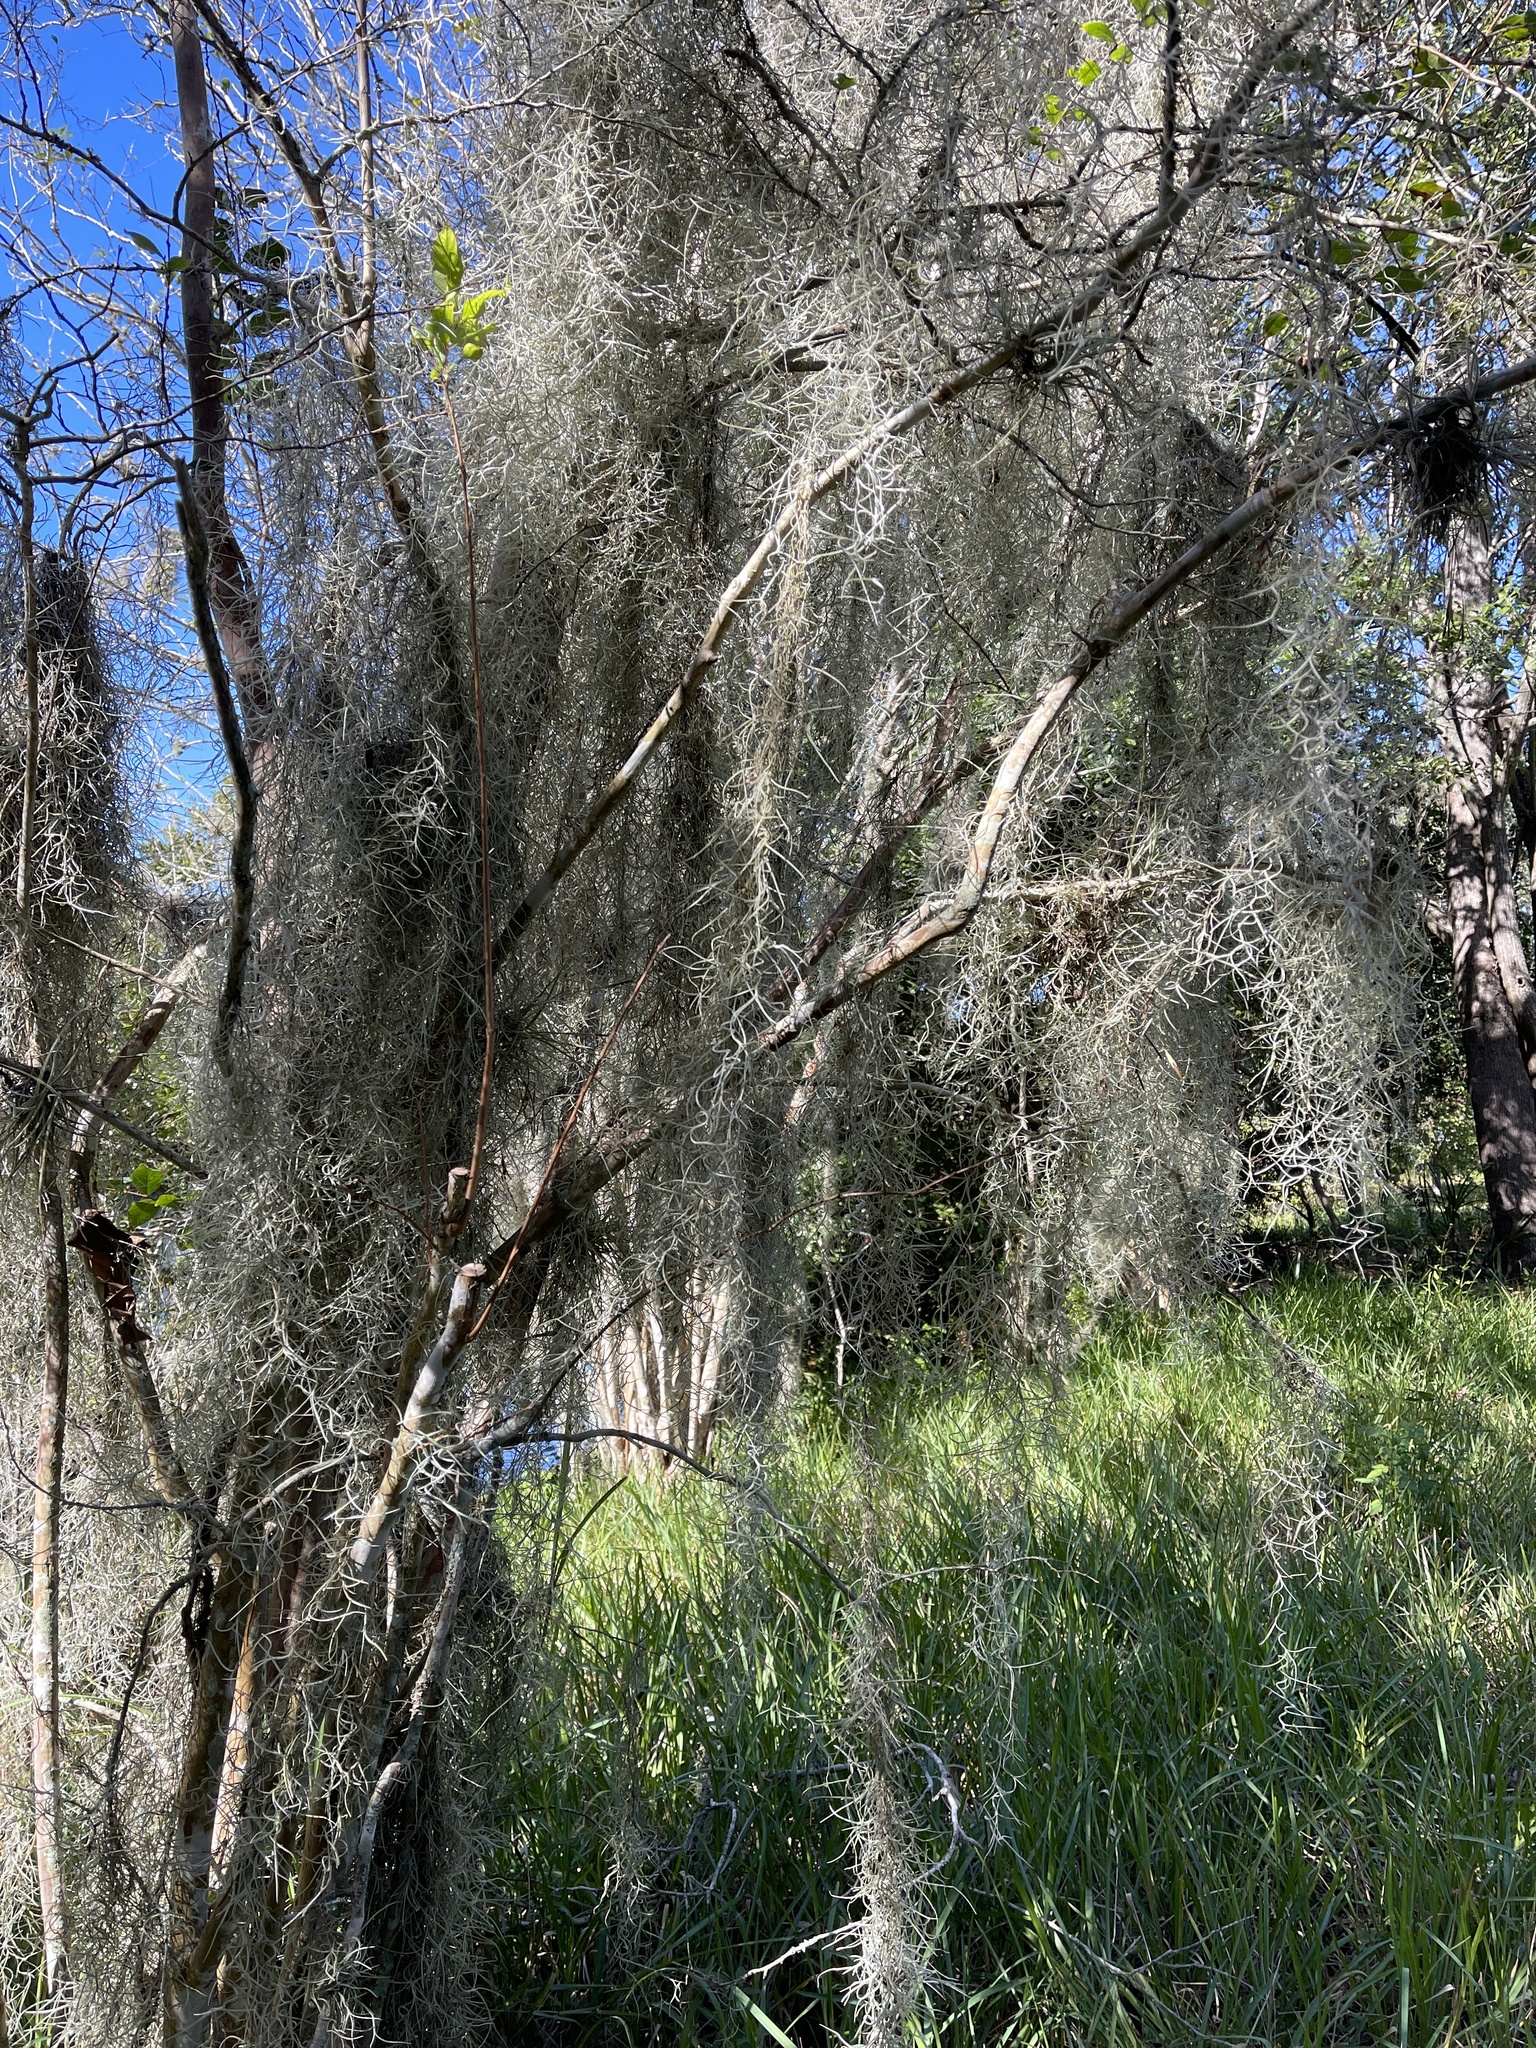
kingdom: Plantae
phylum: Tracheophyta
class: Liliopsida
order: Poales
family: Bromeliaceae
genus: Tillandsia
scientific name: Tillandsia usneoides
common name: Spanish moss
